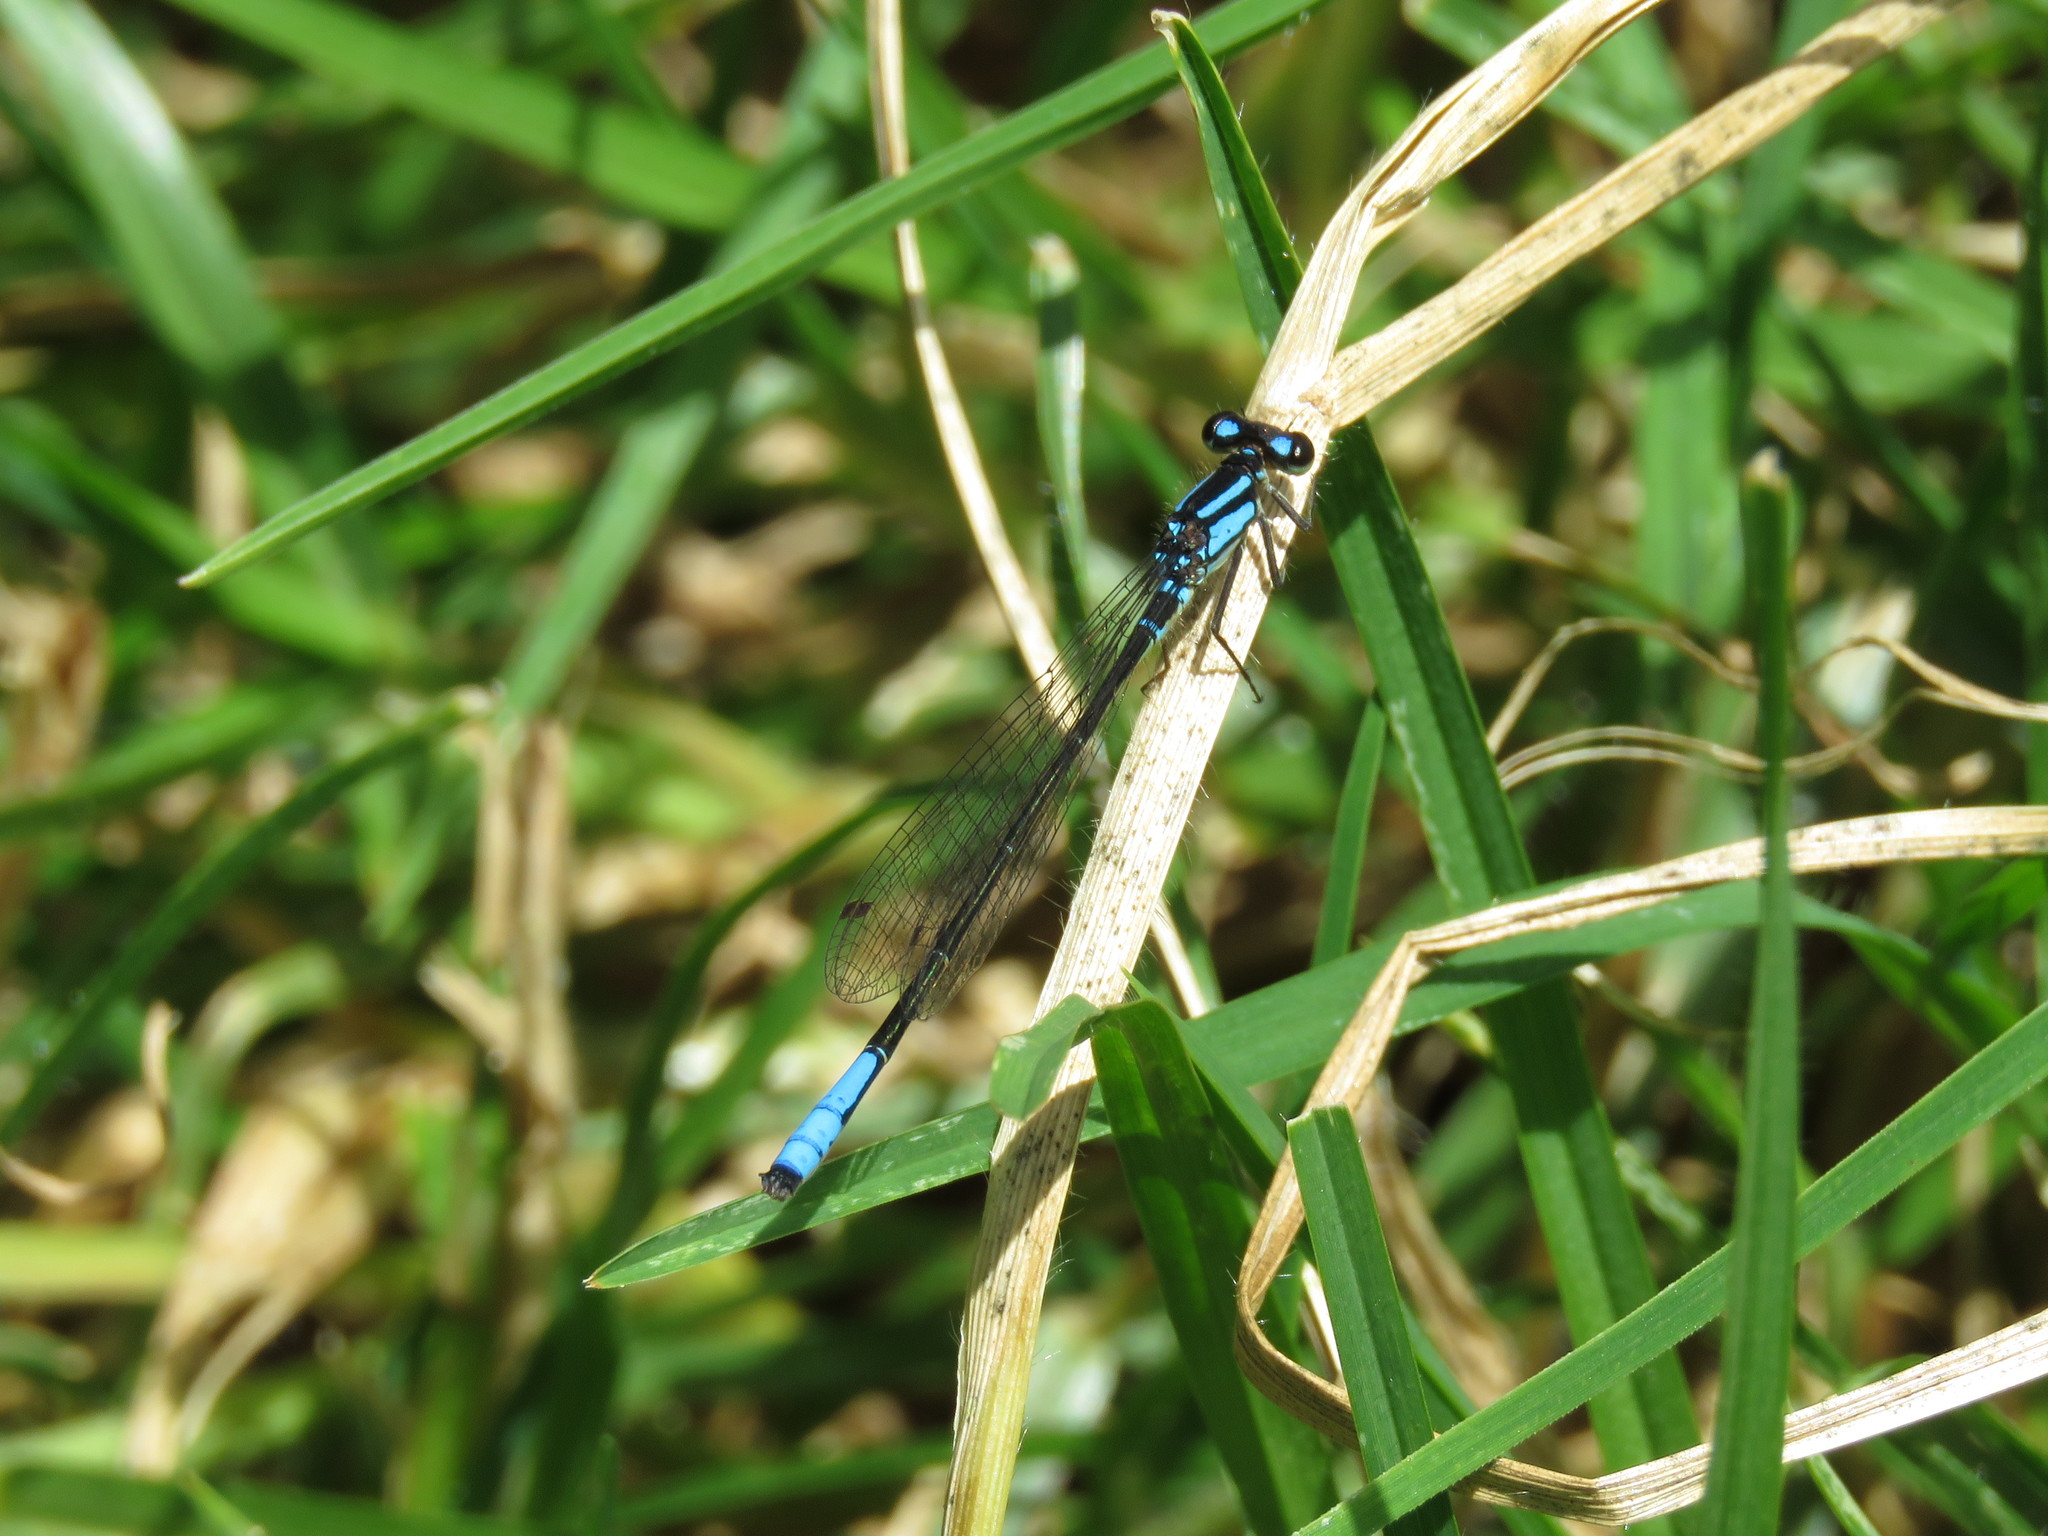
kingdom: Animalia
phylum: Arthropoda
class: Insecta
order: Odonata
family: Coenagrionidae
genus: Mesamphiagrion
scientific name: Mesamphiagrion laterale
